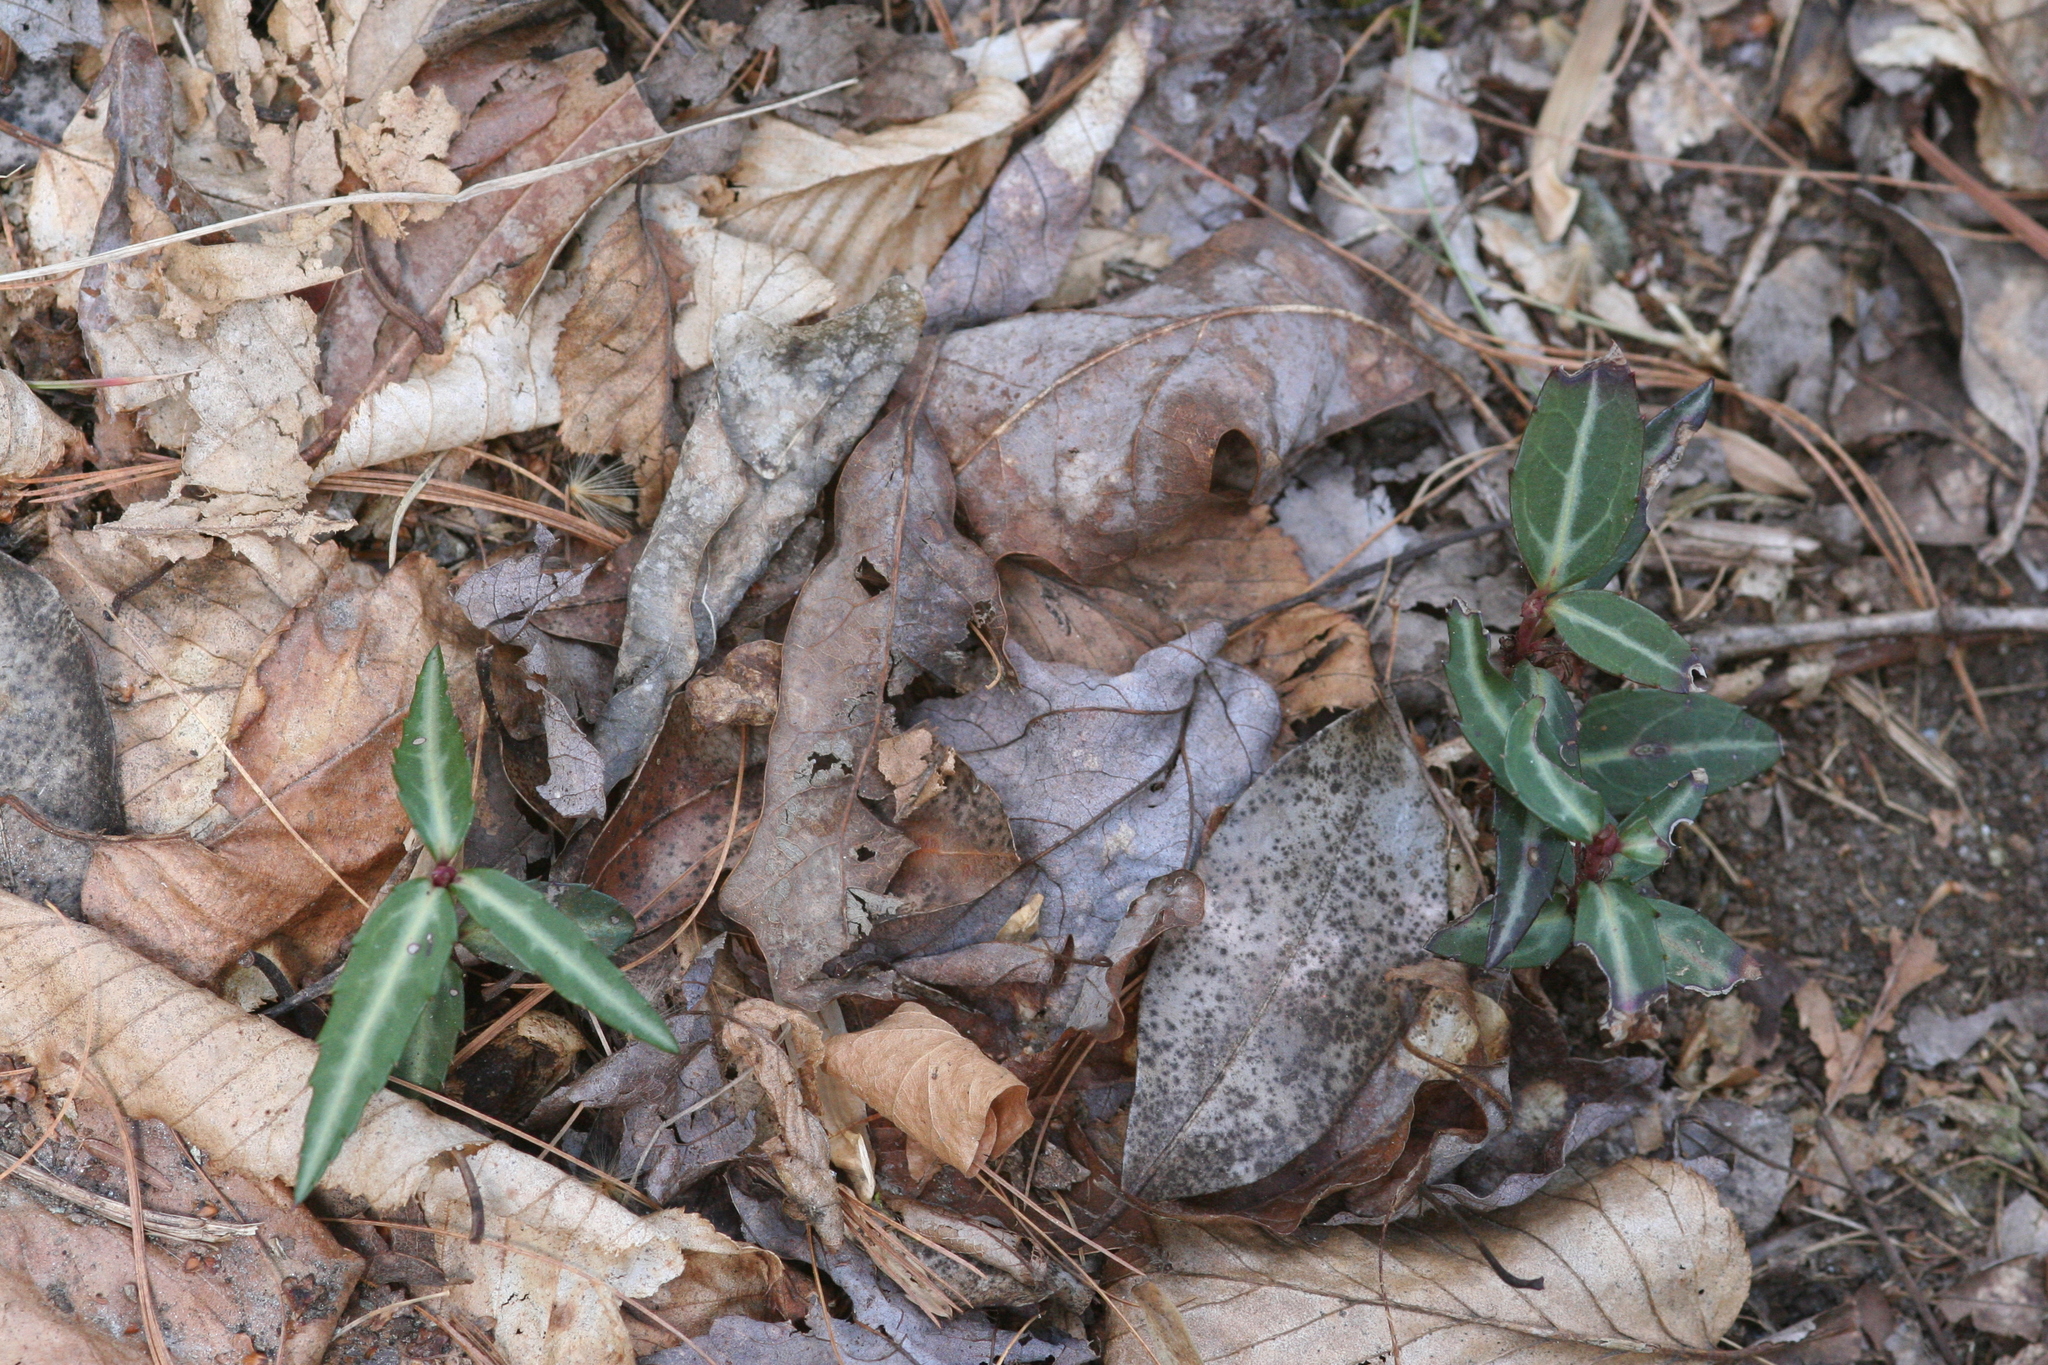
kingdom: Plantae
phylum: Tracheophyta
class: Magnoliopsida
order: Ericales
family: Ericaceae
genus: Chimaphila
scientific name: Chimaphila maculata
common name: Spotted pipsissewa
